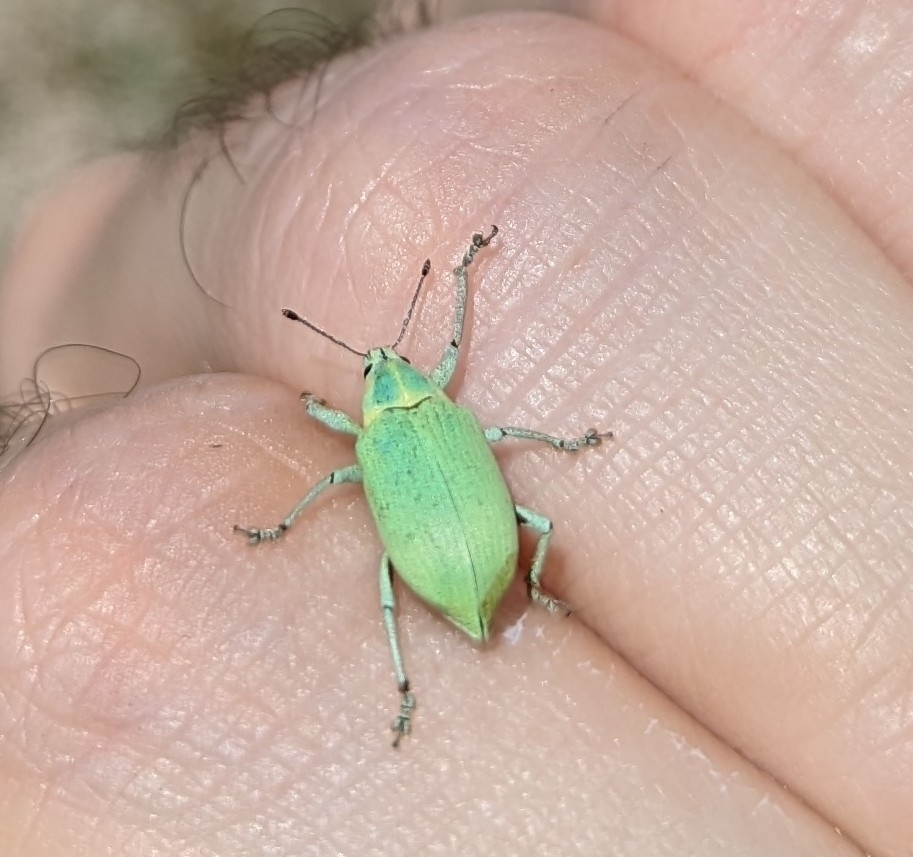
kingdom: Animalia
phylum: Arthropoda
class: Insecta
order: Coleoptera
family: Curculionidae
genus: Pachnaeus
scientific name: Pachnaeus litus
